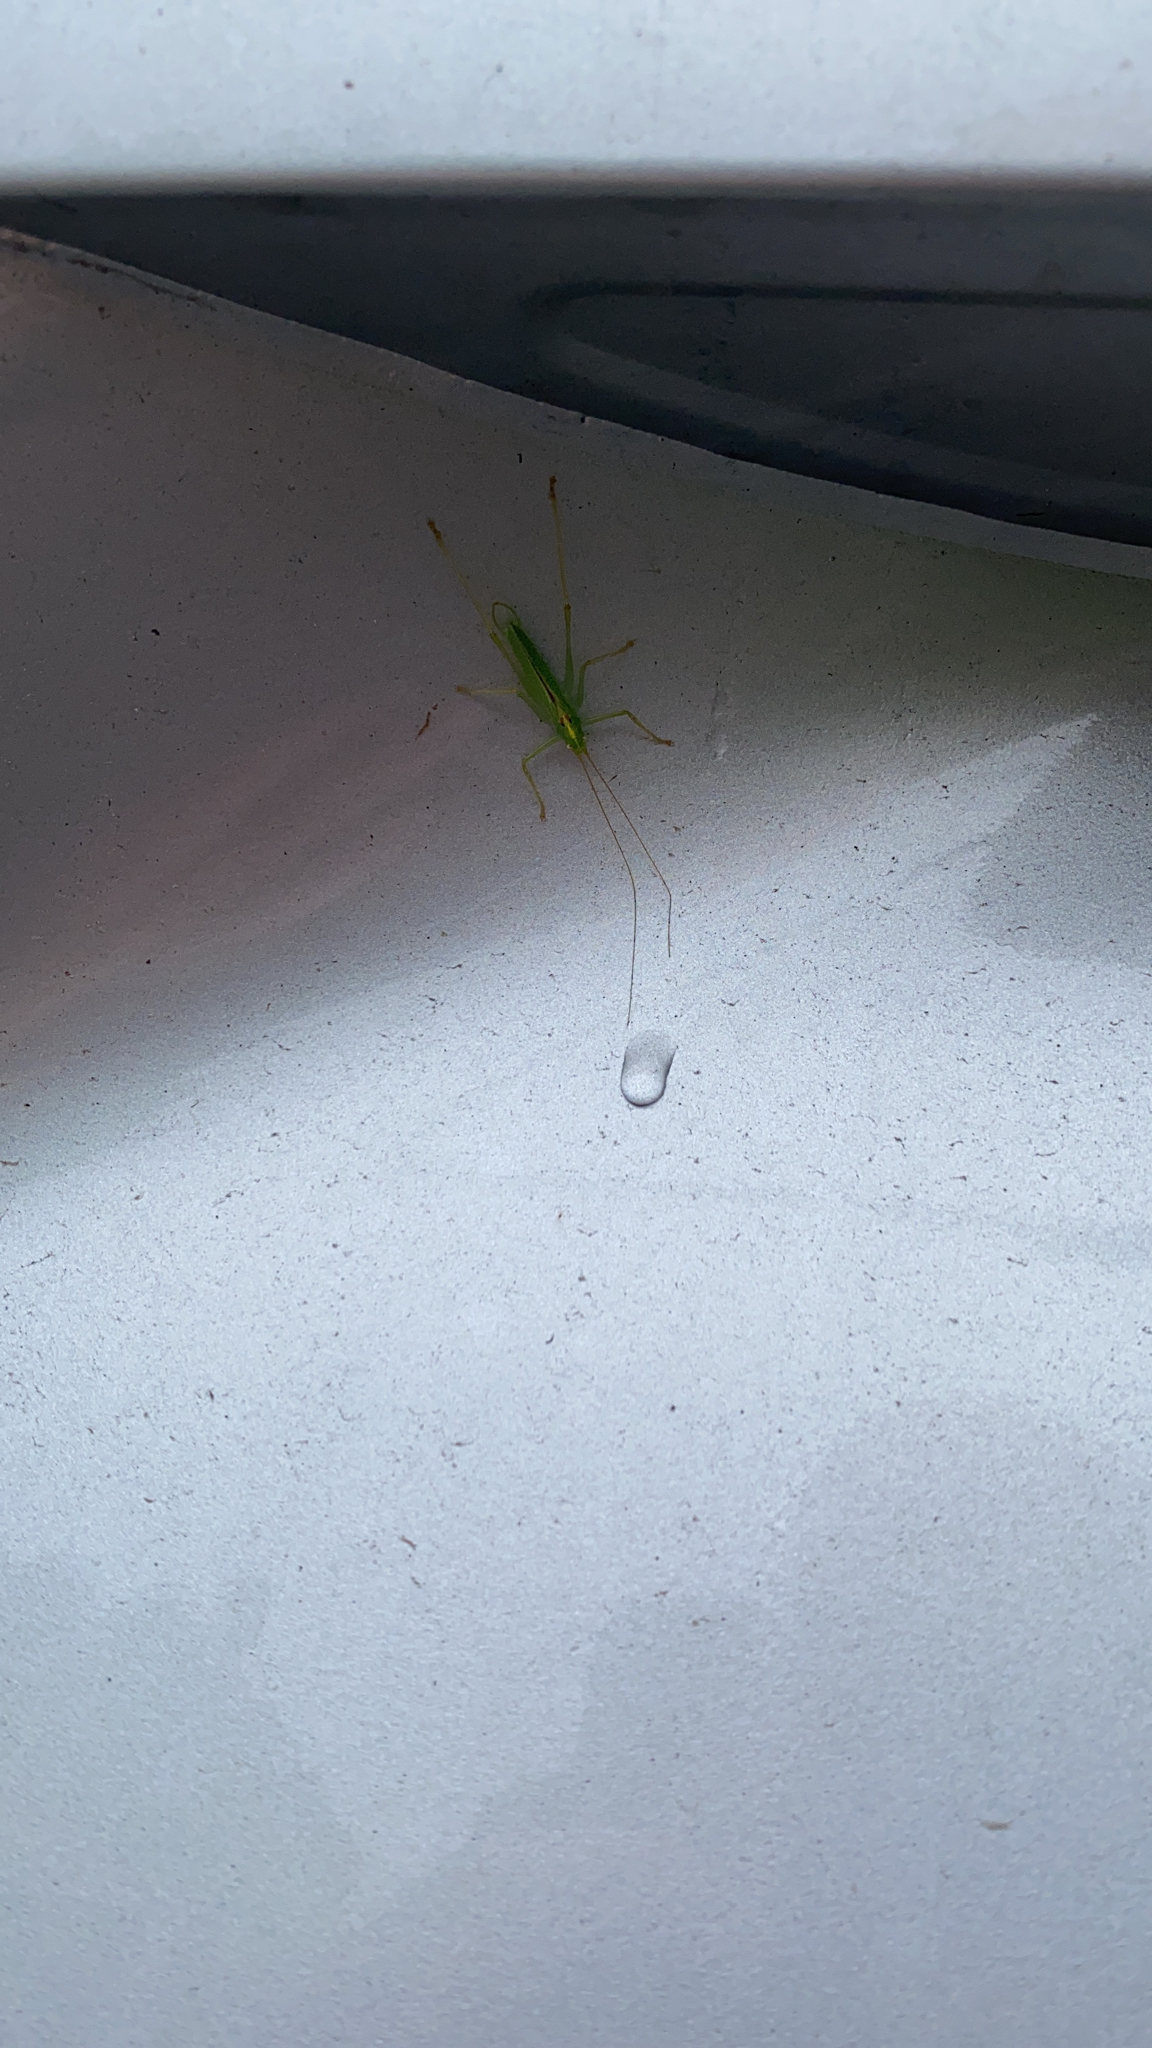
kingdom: Animalia
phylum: Arthropoda
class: Insecta
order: Orthoptera
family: Tettigoniidae
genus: Meconema
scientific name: Meconema thalassinum
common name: Oak bush-cricket
